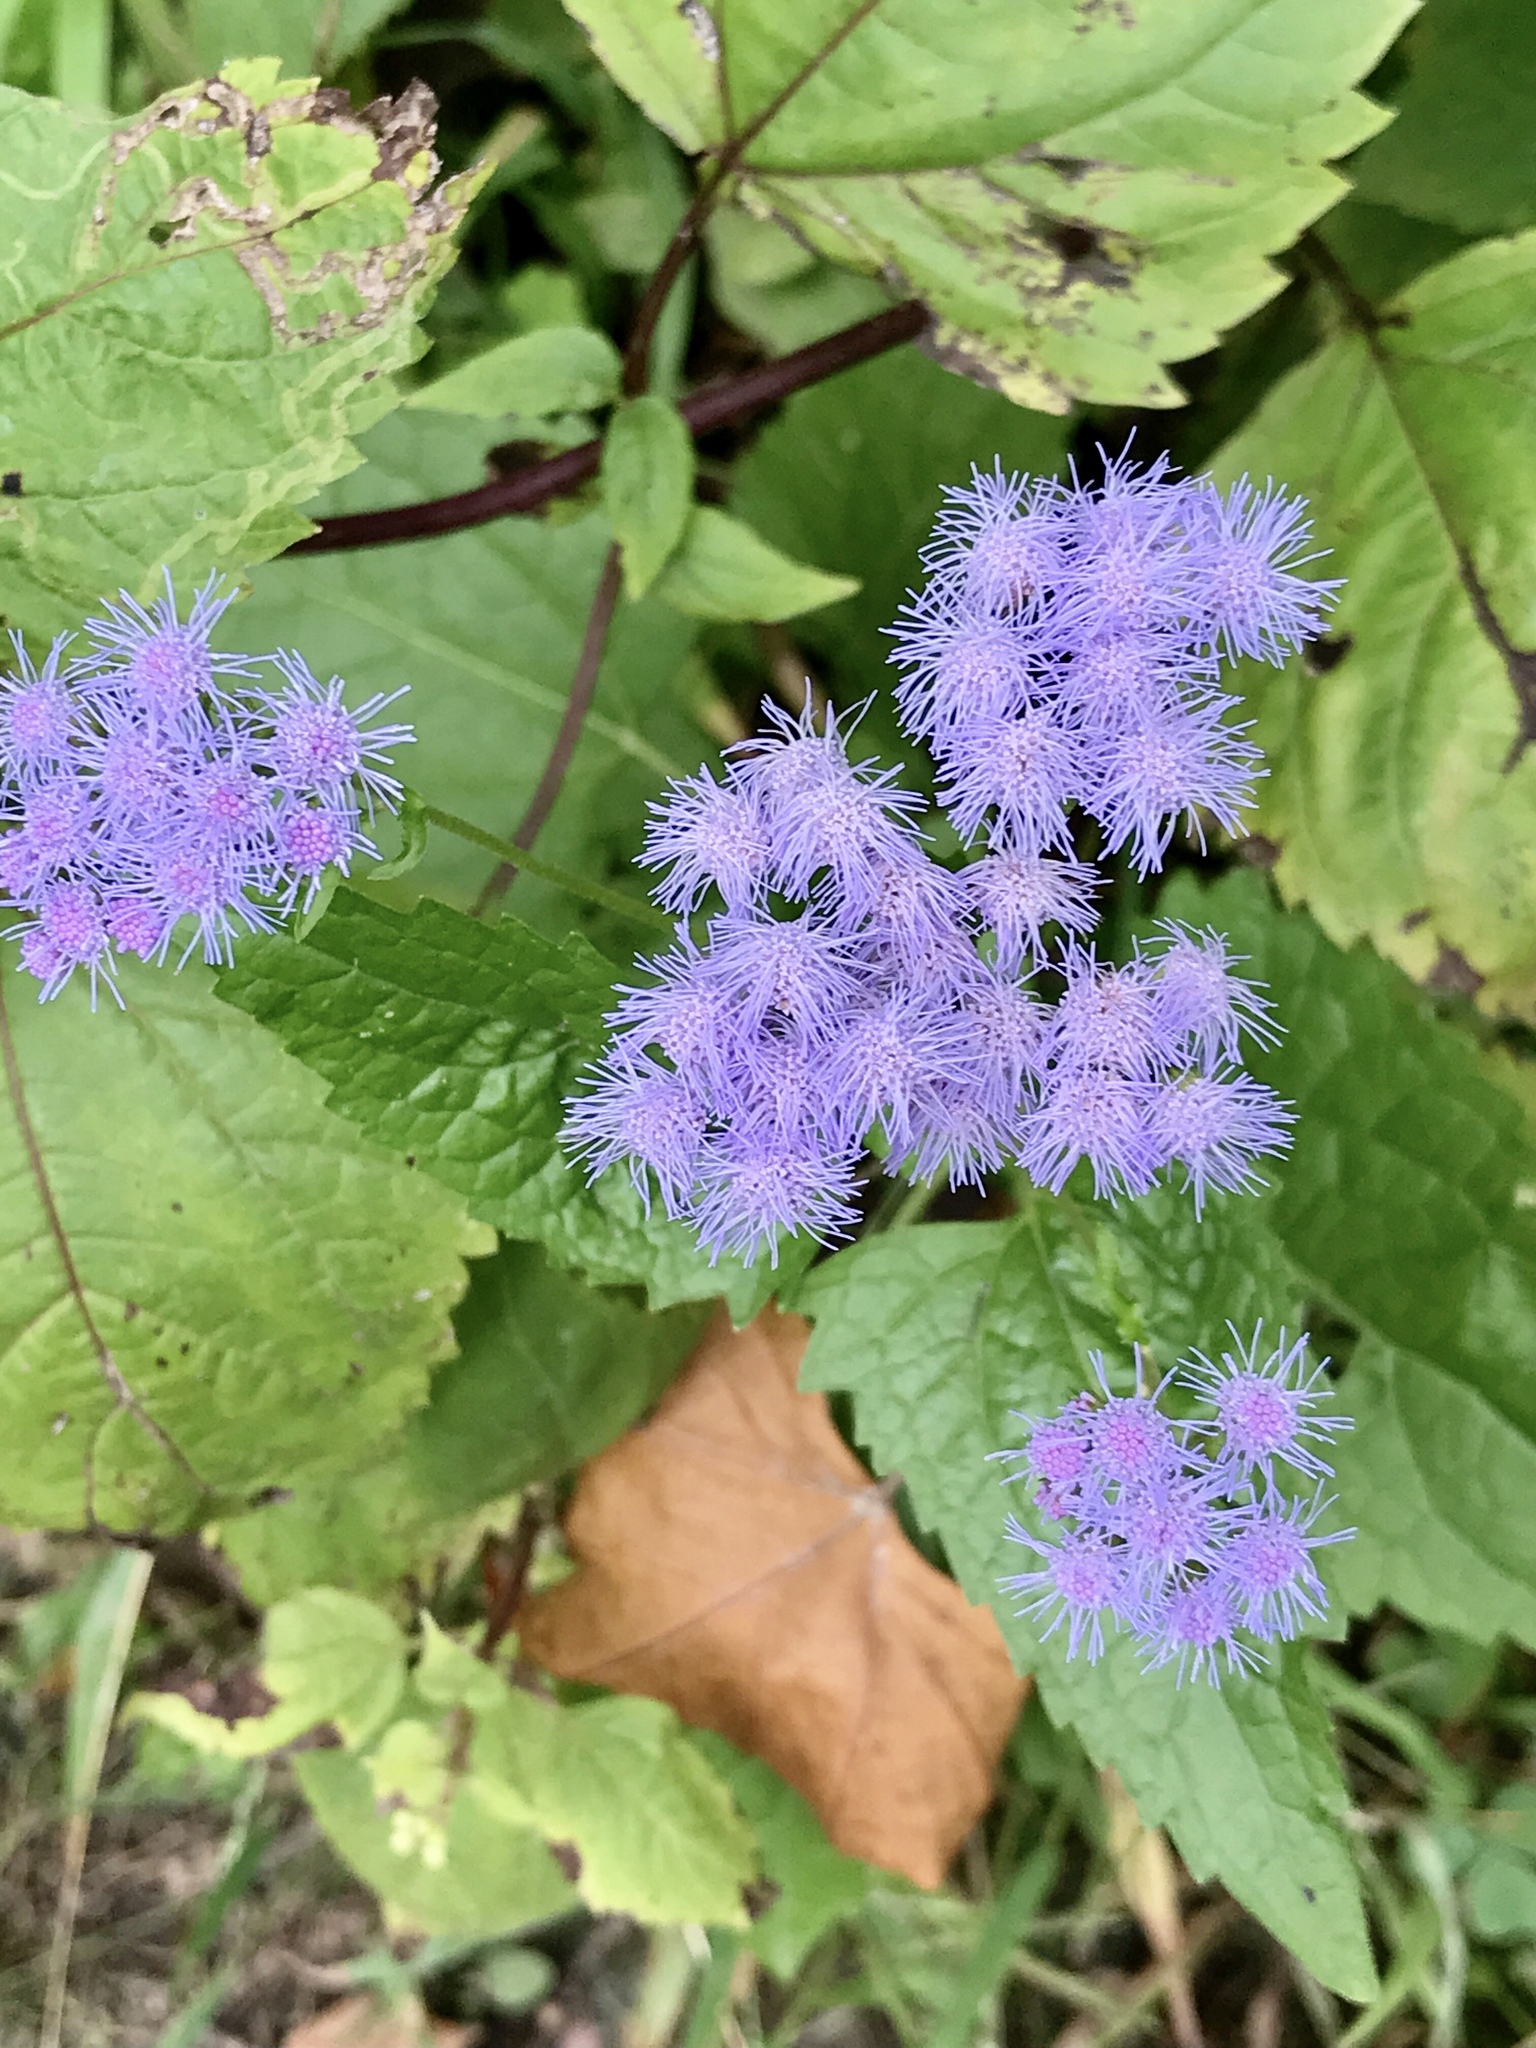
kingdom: Plantae
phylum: Tracheophyta
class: Magnoliopsida
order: Asterales
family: Asteraceae
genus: Conoclinium
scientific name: Conoclinium coelestinum
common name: Blue mistflower
